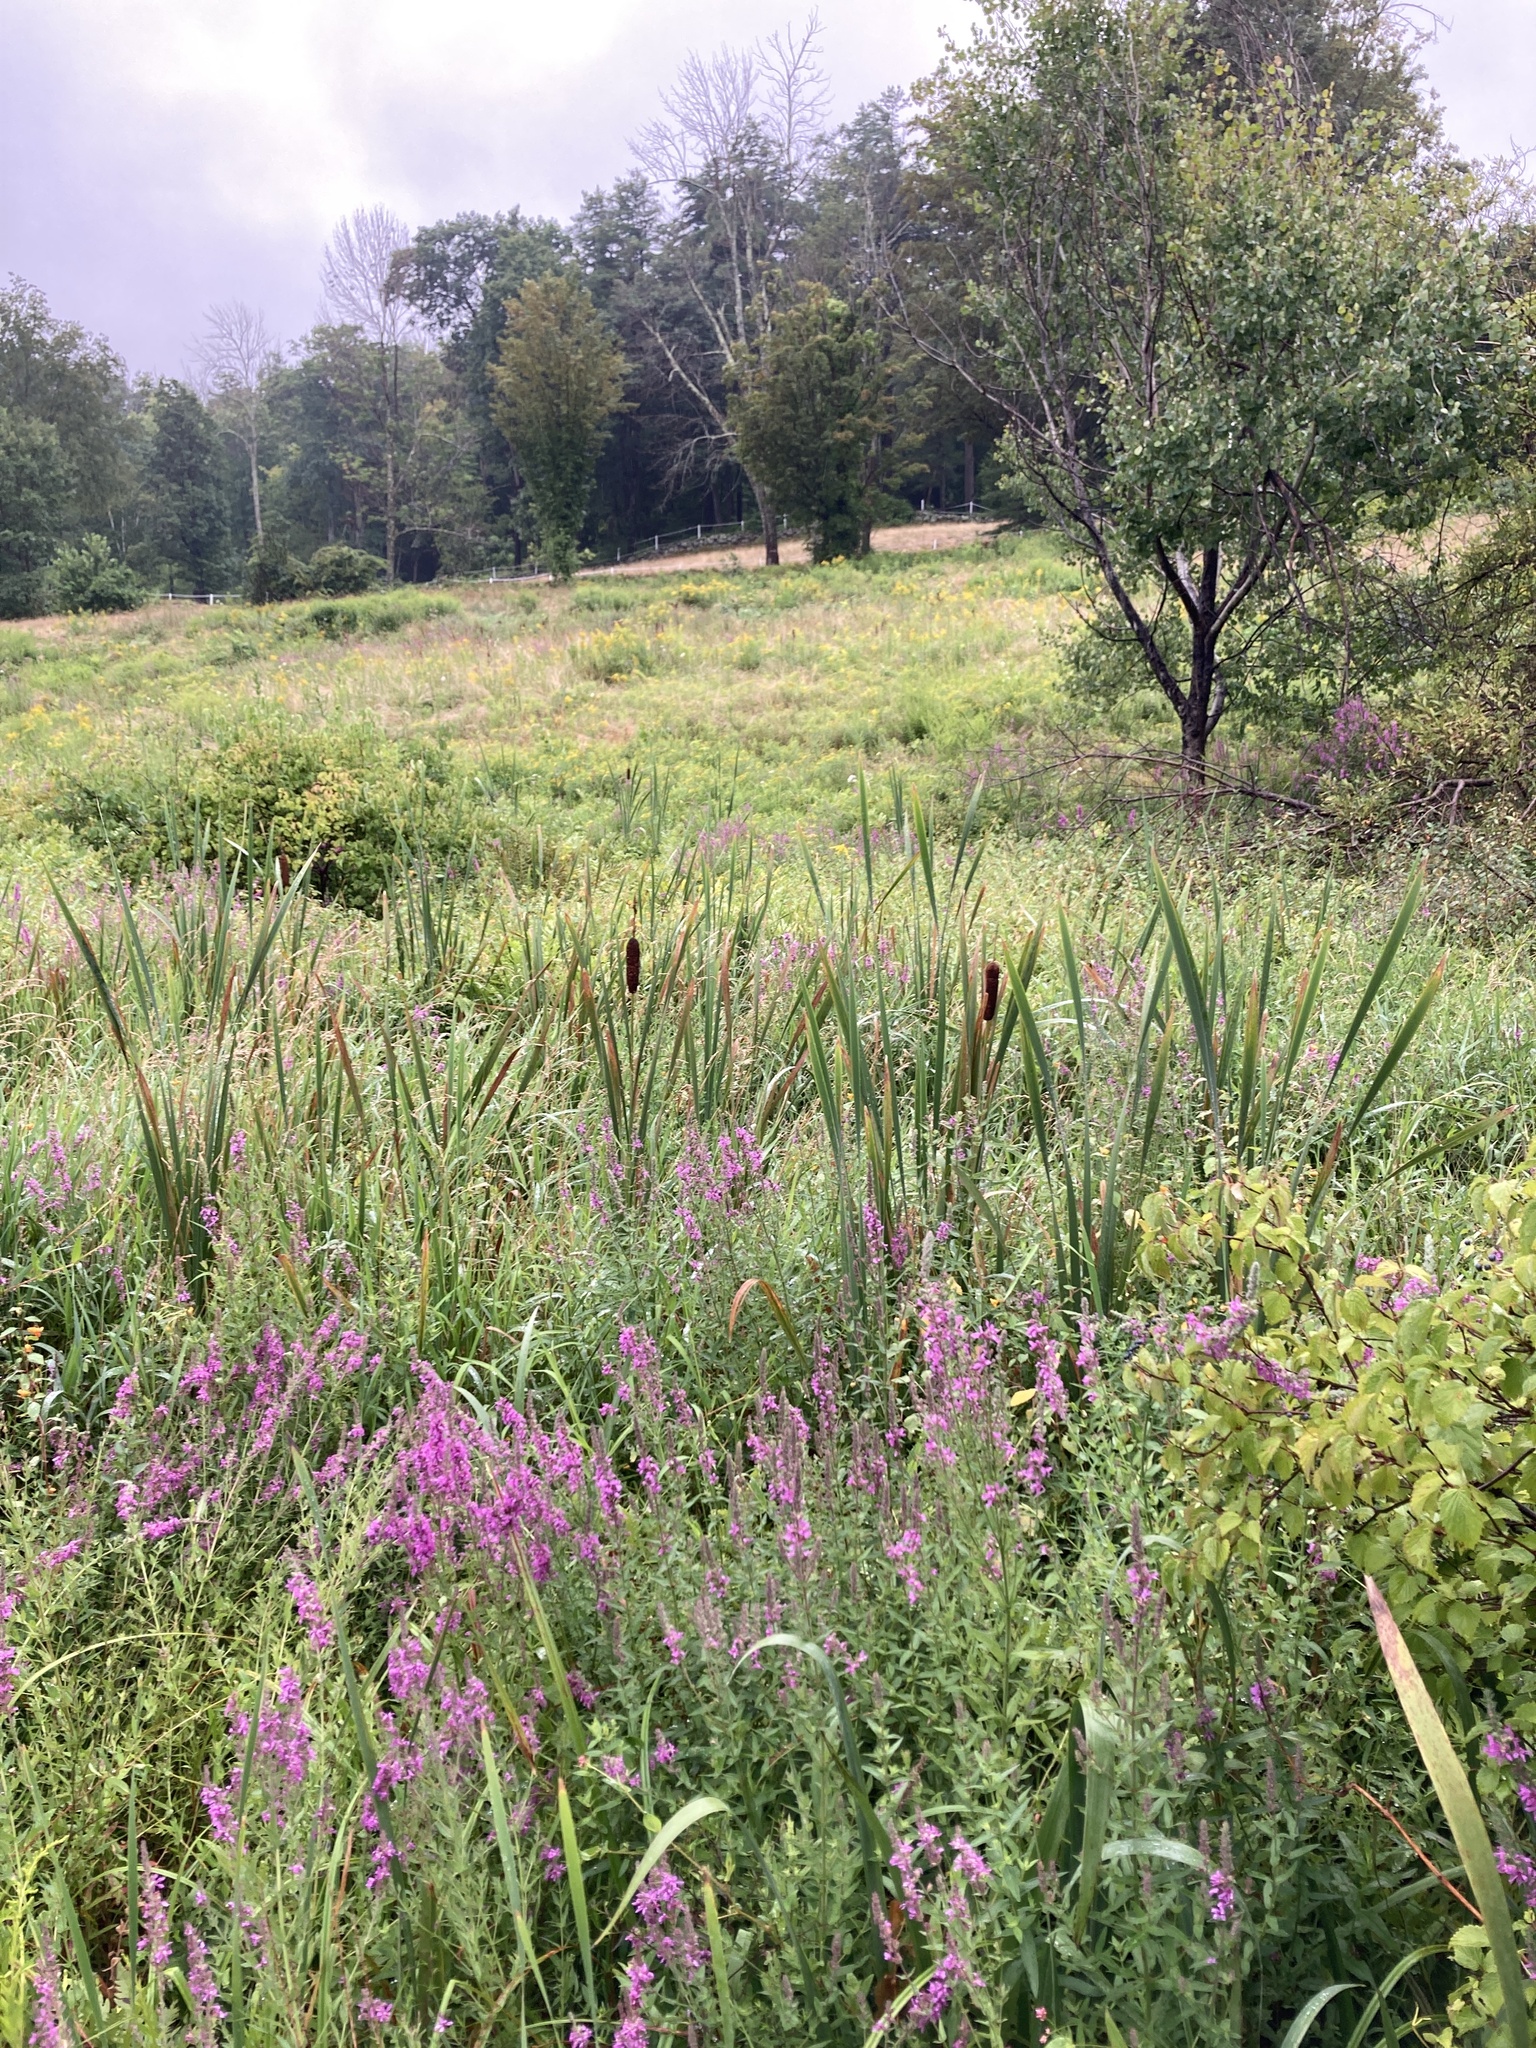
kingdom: Plantae
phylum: Tracheophyta
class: Liliopsida
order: Poales
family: Typhaceae
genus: Typha
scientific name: Typha latifolia
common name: Broadleaf cattail
